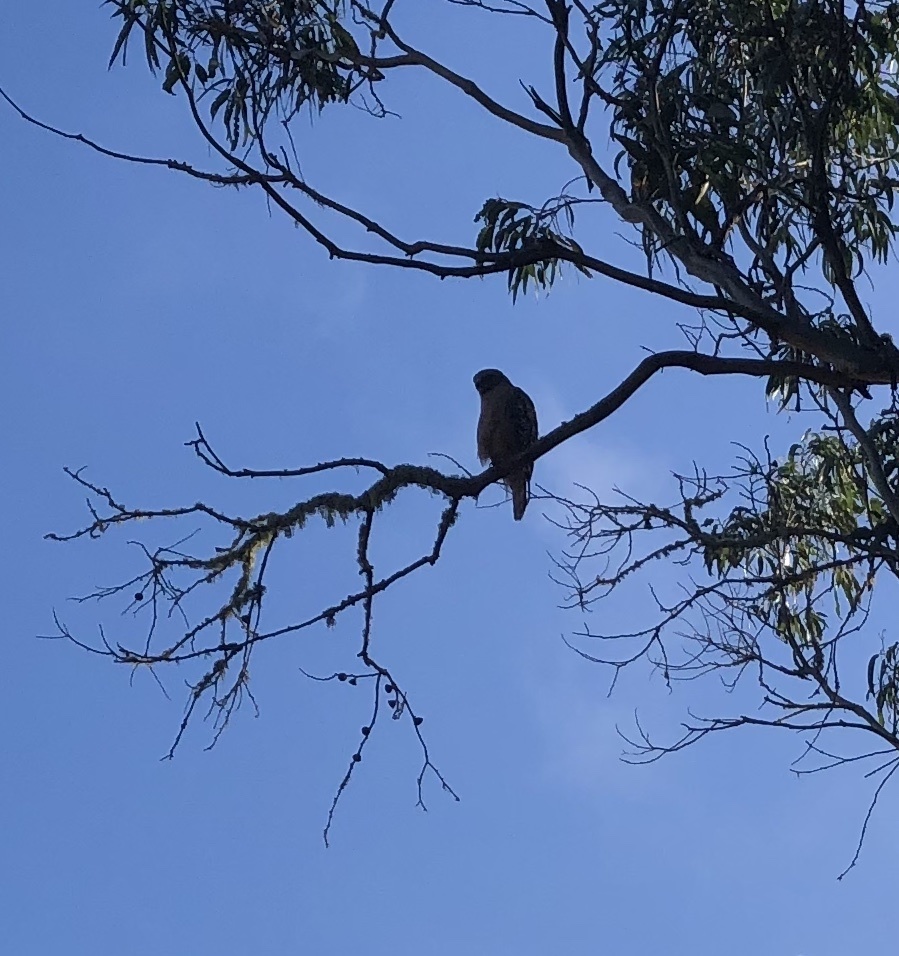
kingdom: Animalia
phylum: Chordata
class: Aves
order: Accipitriformes
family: Accipitridae
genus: Buteo
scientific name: Buteo lineatus
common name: Red-shouldered hawk
